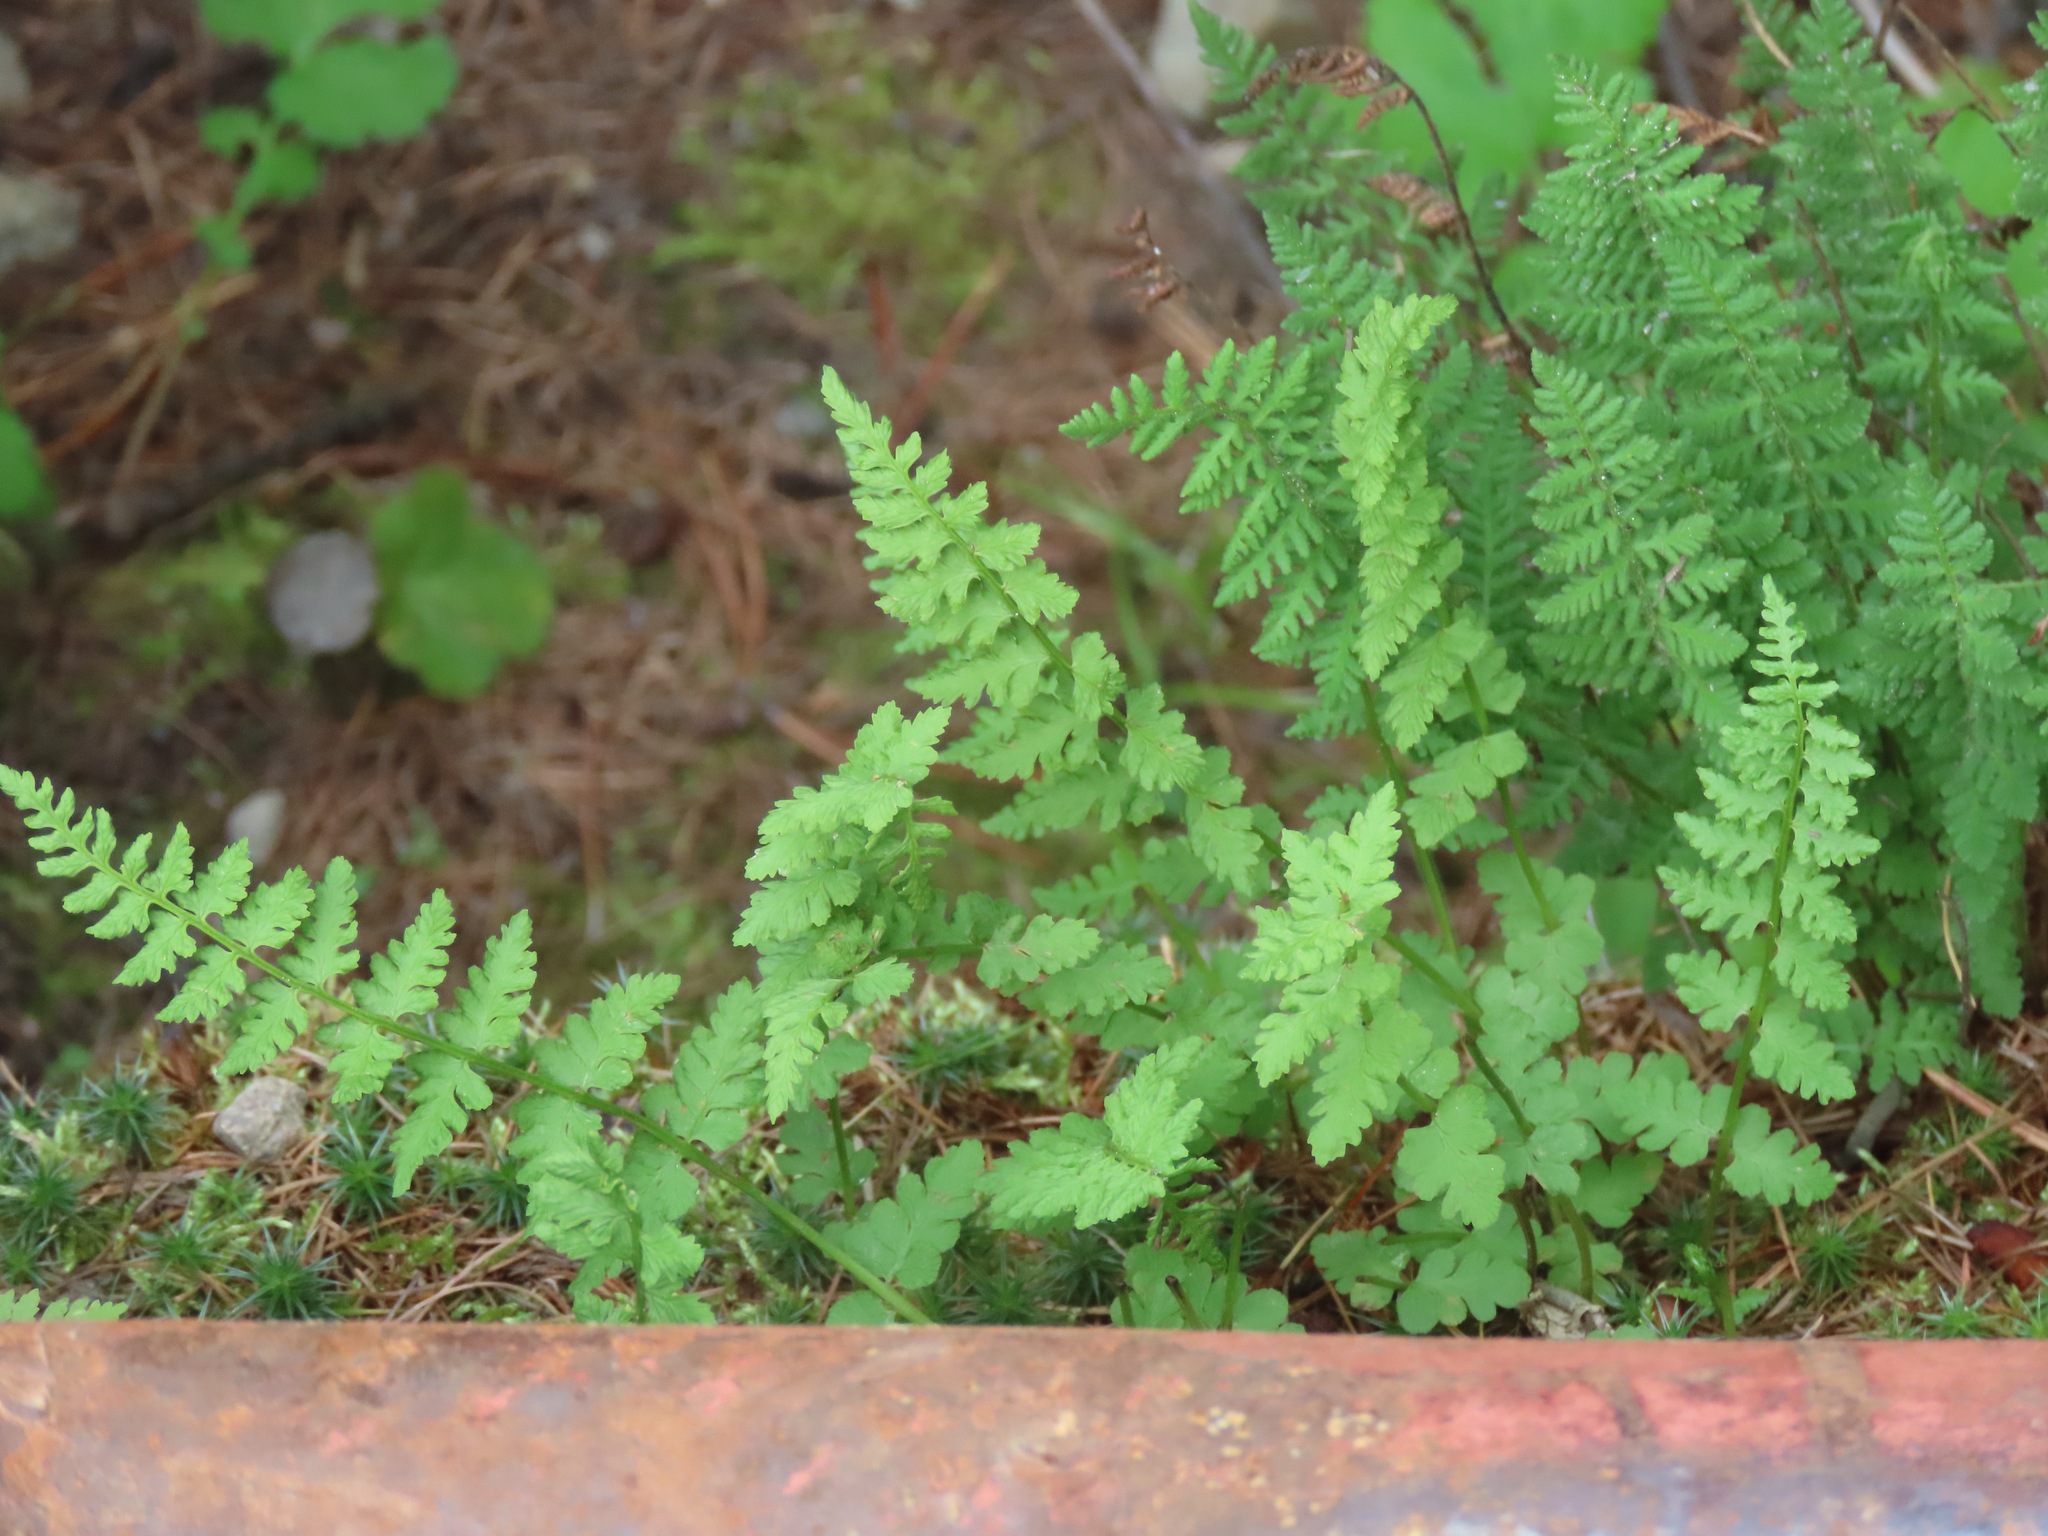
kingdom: Plantae
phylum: Tracheophyta
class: Polypodiopsida
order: Polypodiales
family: Cystopteridaceae
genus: Cystopteris
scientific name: Cystopteris fragilis
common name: Brittle bladder fern
